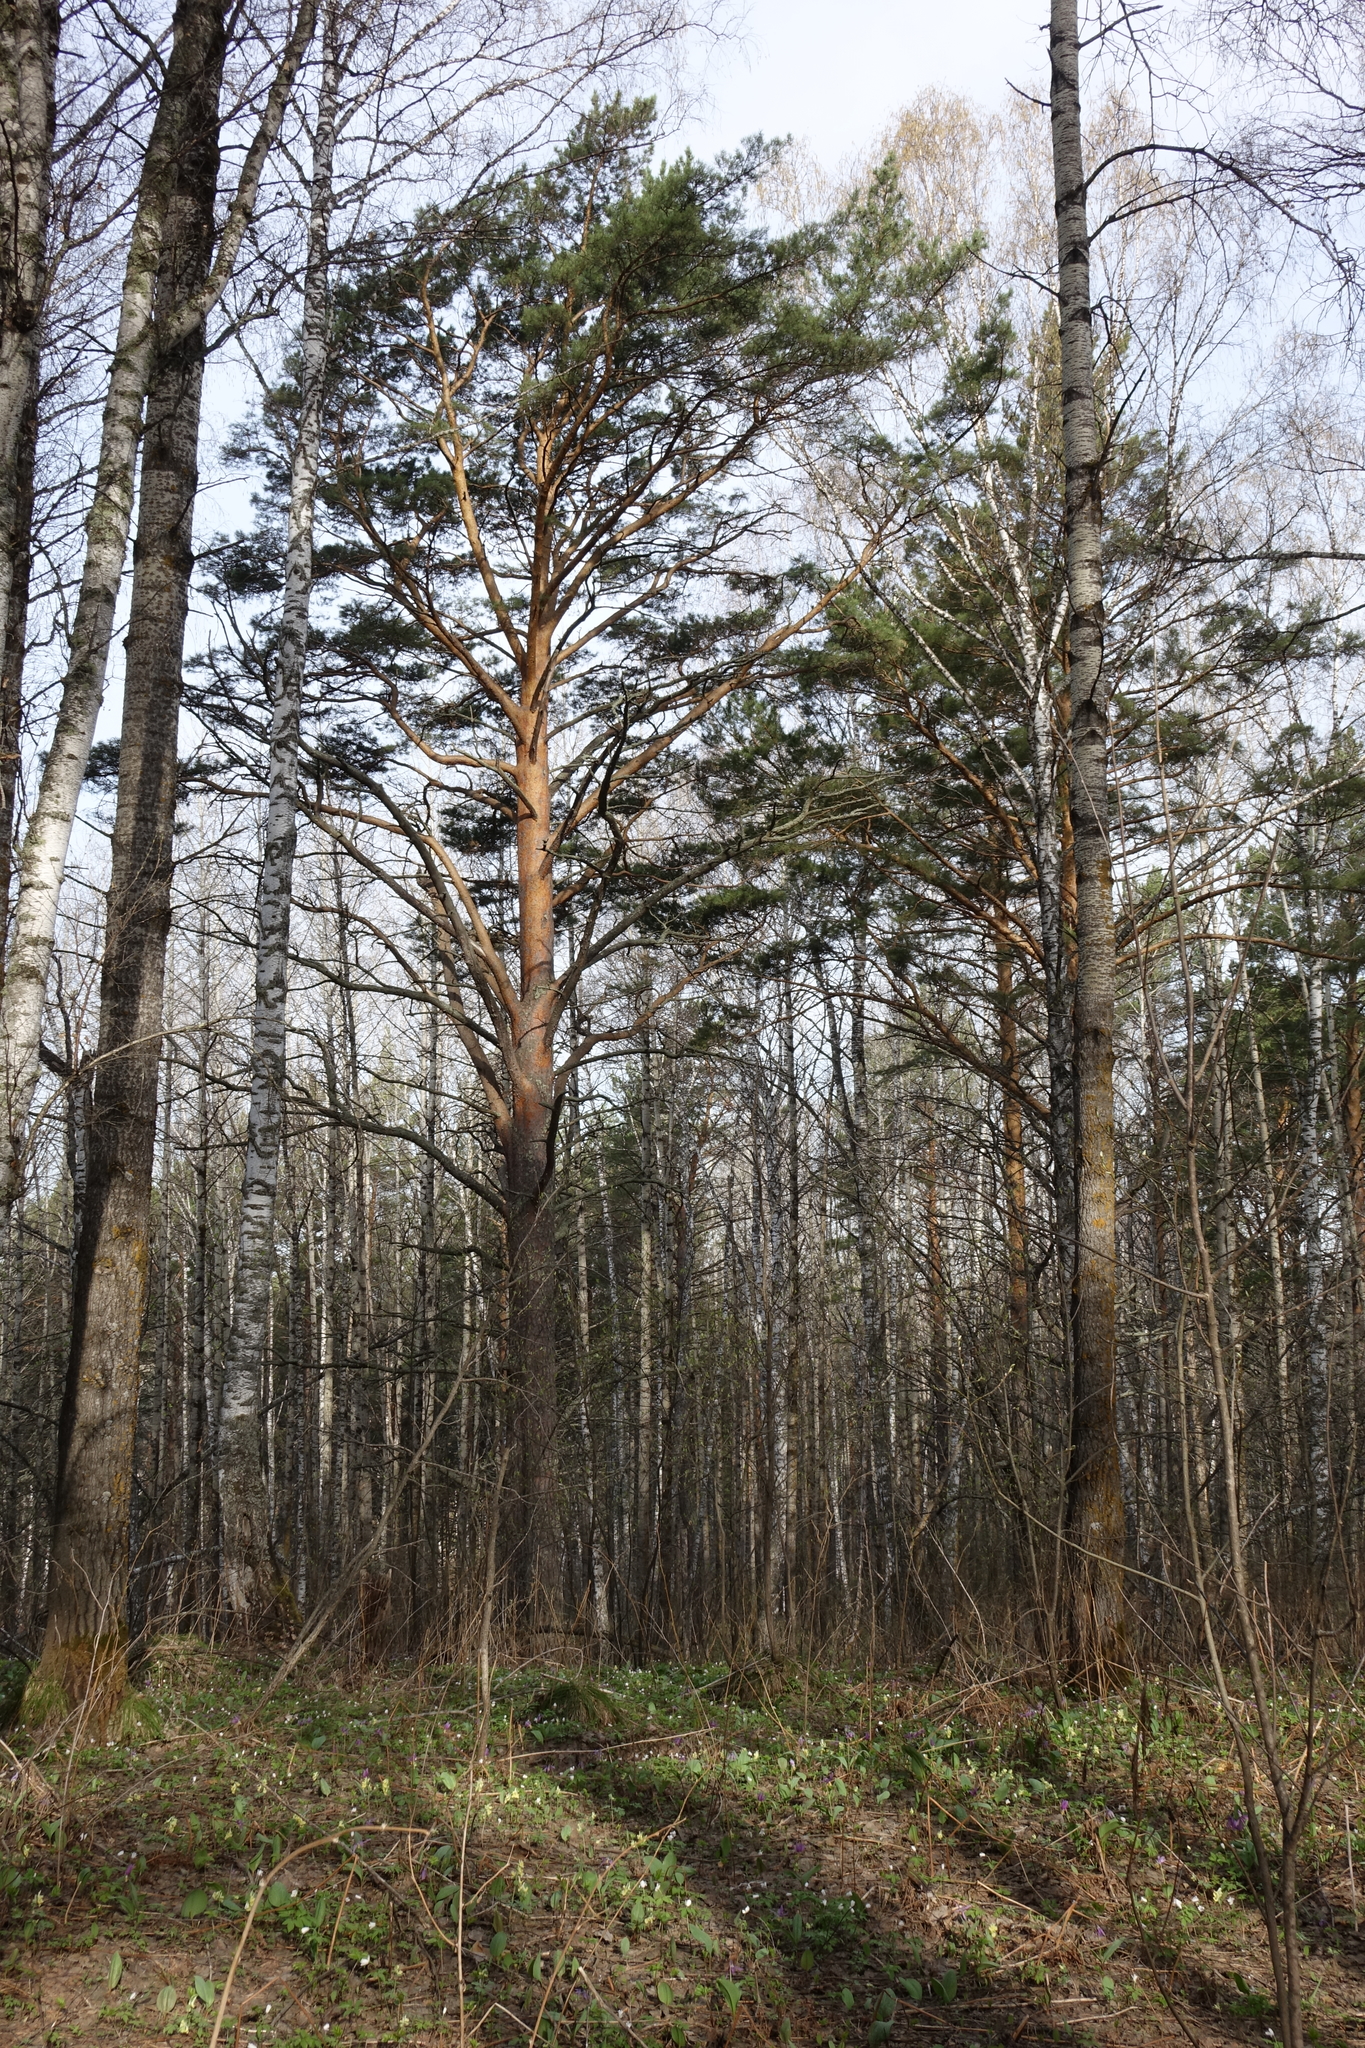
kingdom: Plantae
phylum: Tracheophyta
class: Pinopsida
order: Pinales
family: Pinaceae
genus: Pinus
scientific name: Pinus sylvestris
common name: Scots pine
